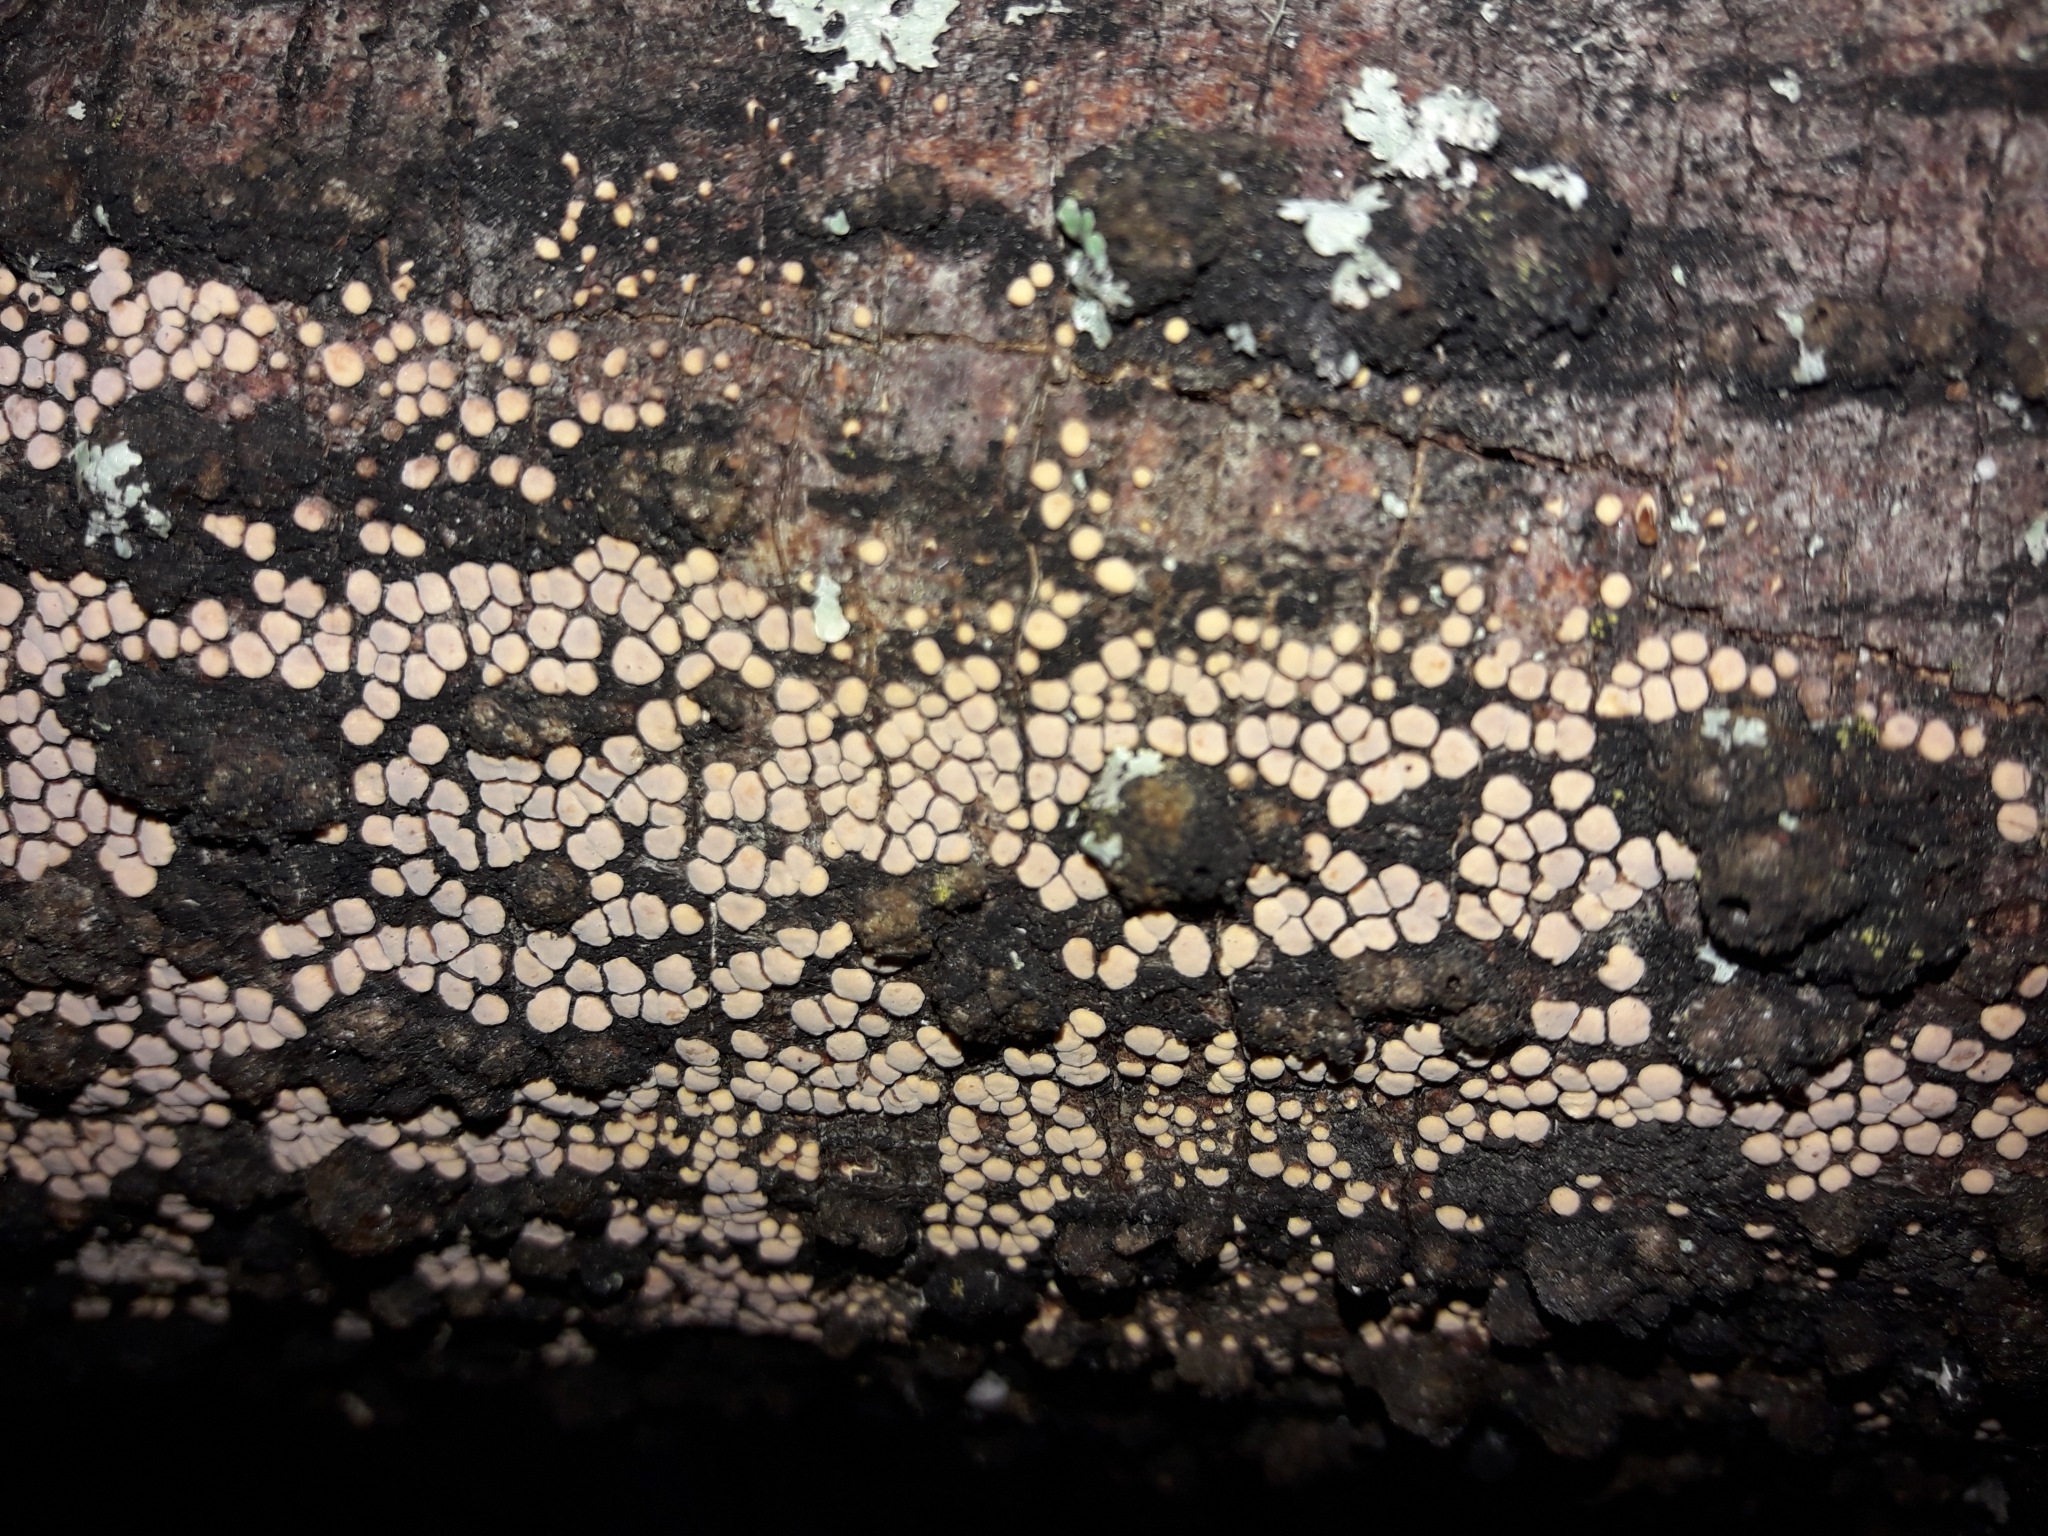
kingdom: Fungi
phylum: Basidiomycota
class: Agaricomycetes
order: Russulales
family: Stereaceae
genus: Aleurodiscus
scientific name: Aleurodiscus berggrenii
